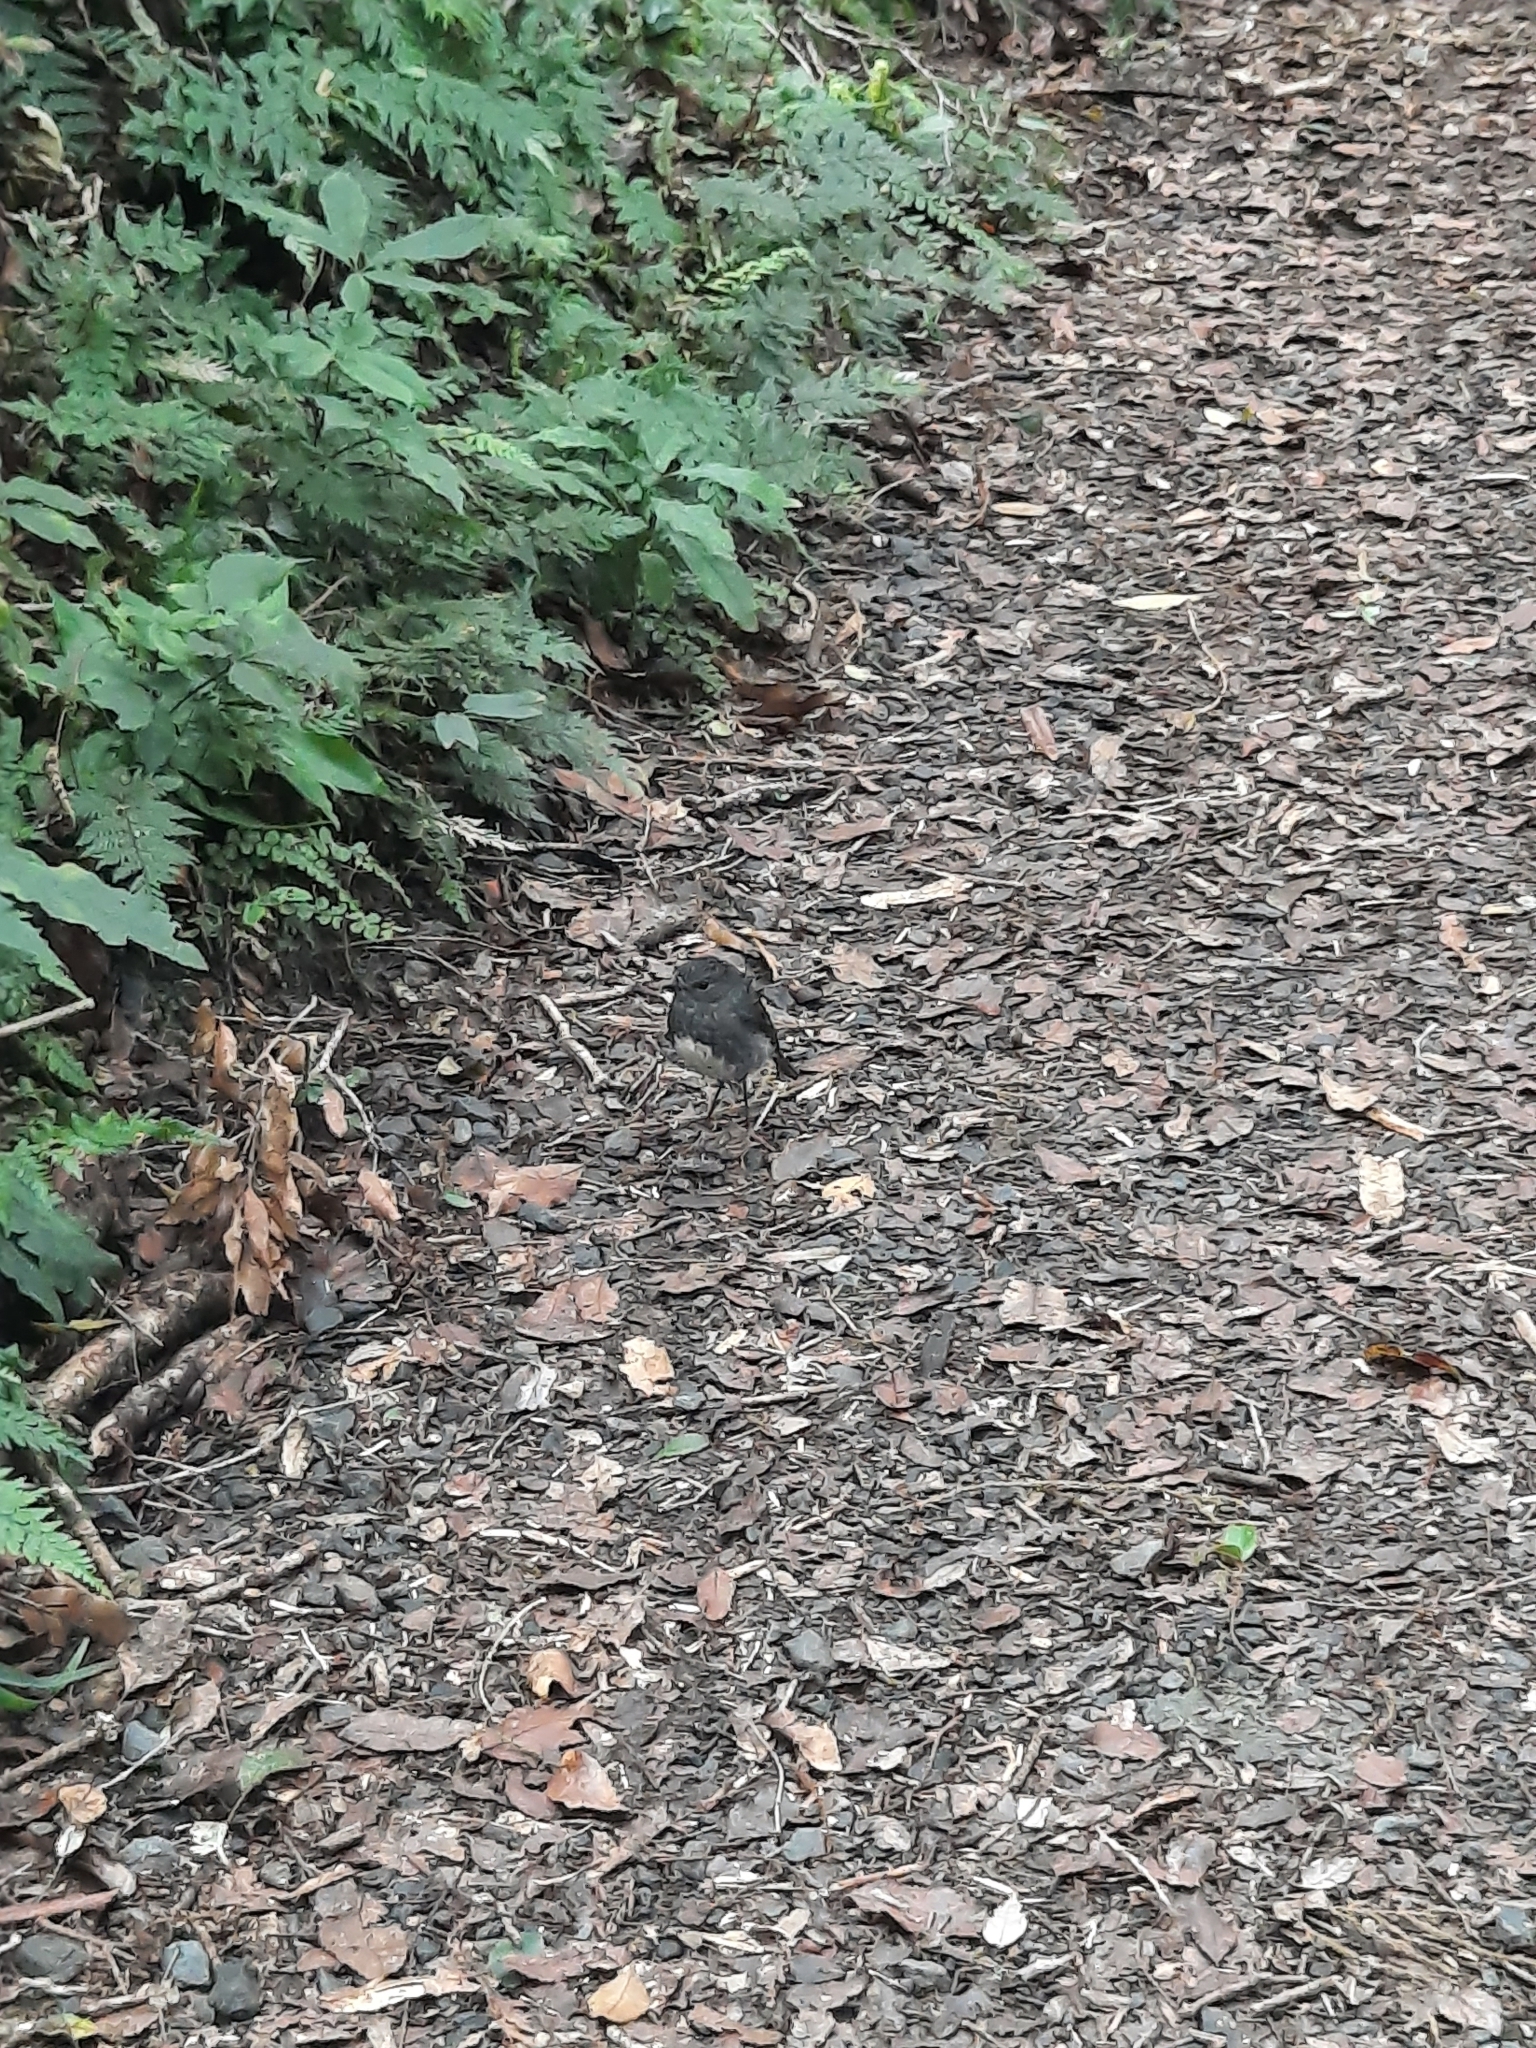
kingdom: Animalia
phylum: Chordata
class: Aves
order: Passeriformes
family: Petroicidae
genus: Petroica
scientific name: Petroica australis
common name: New zealand robin
